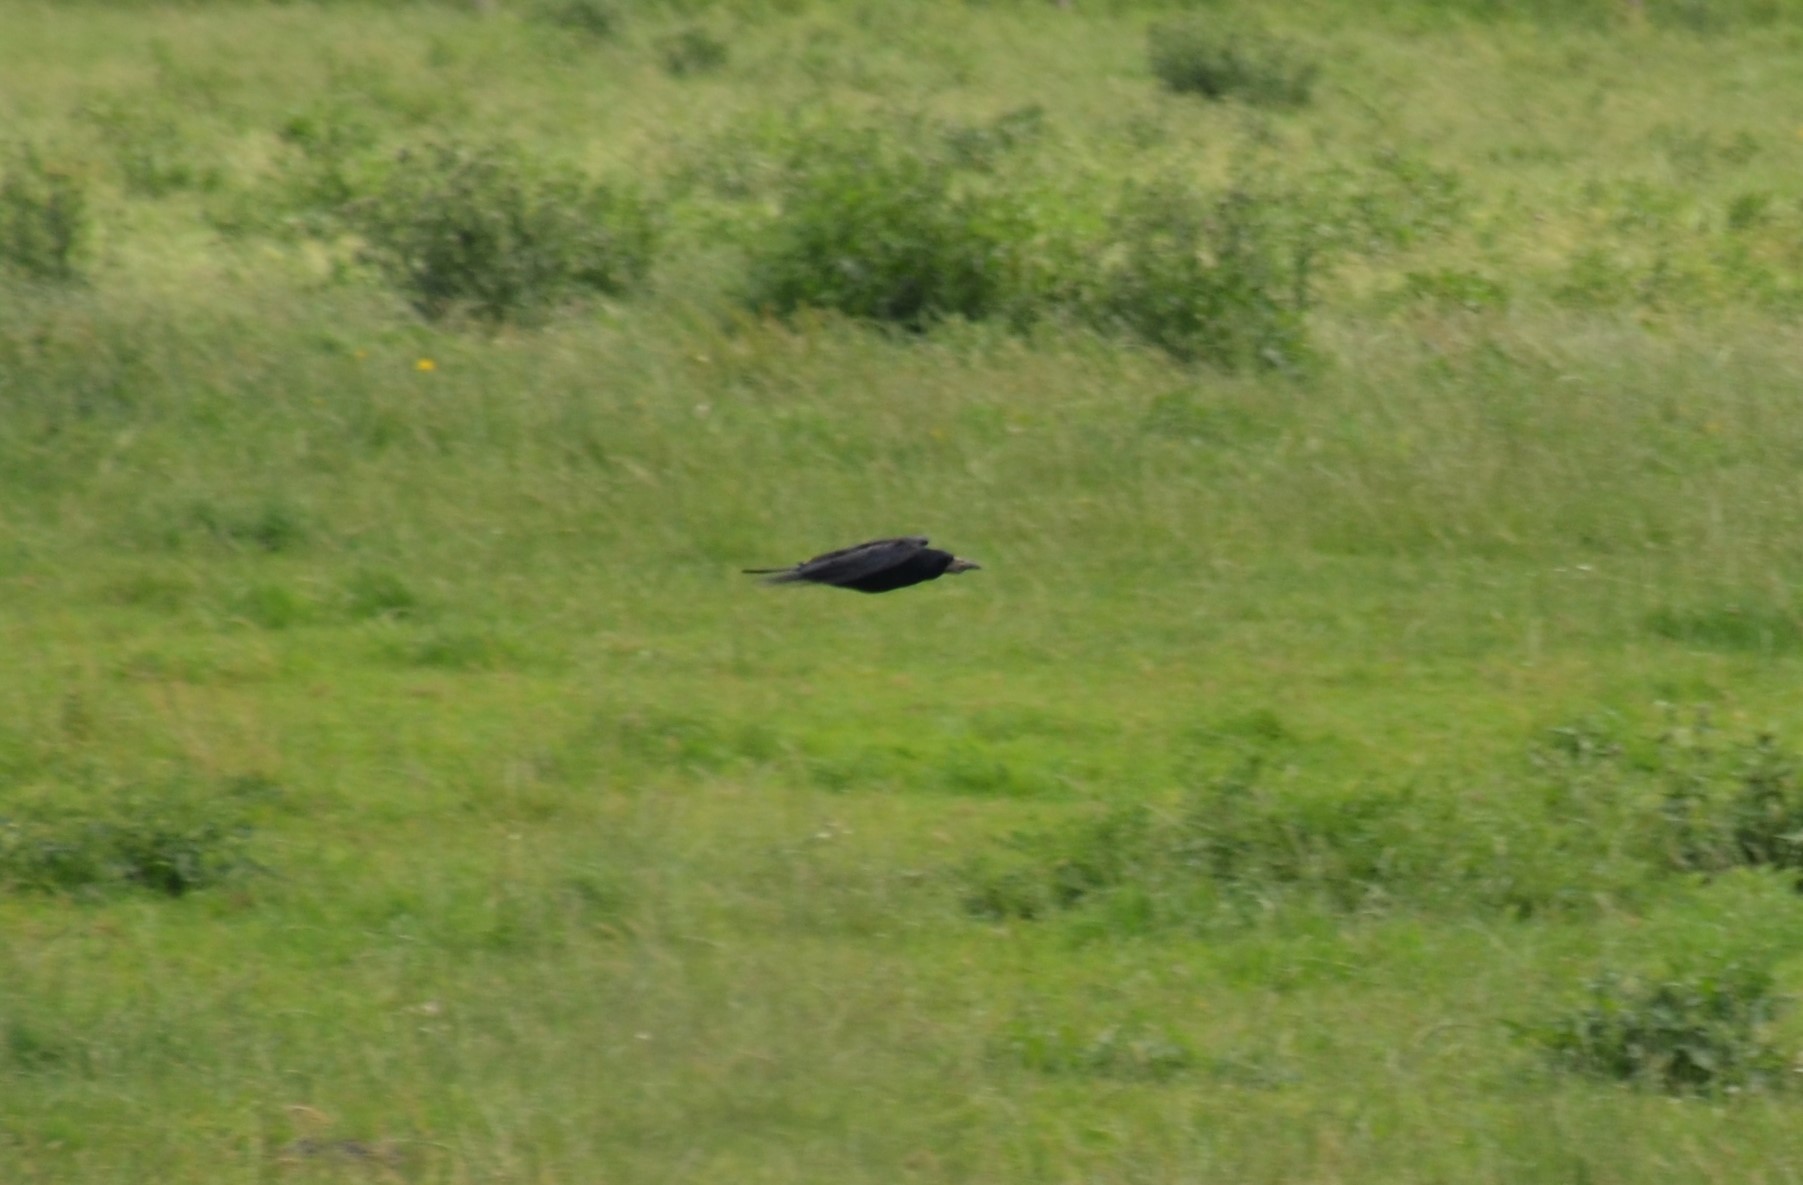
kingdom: Animalia
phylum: Chordata
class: Aves
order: Passeriformes
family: Corvidae
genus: Corvus
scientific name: Corvus frugilegus
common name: Rook
